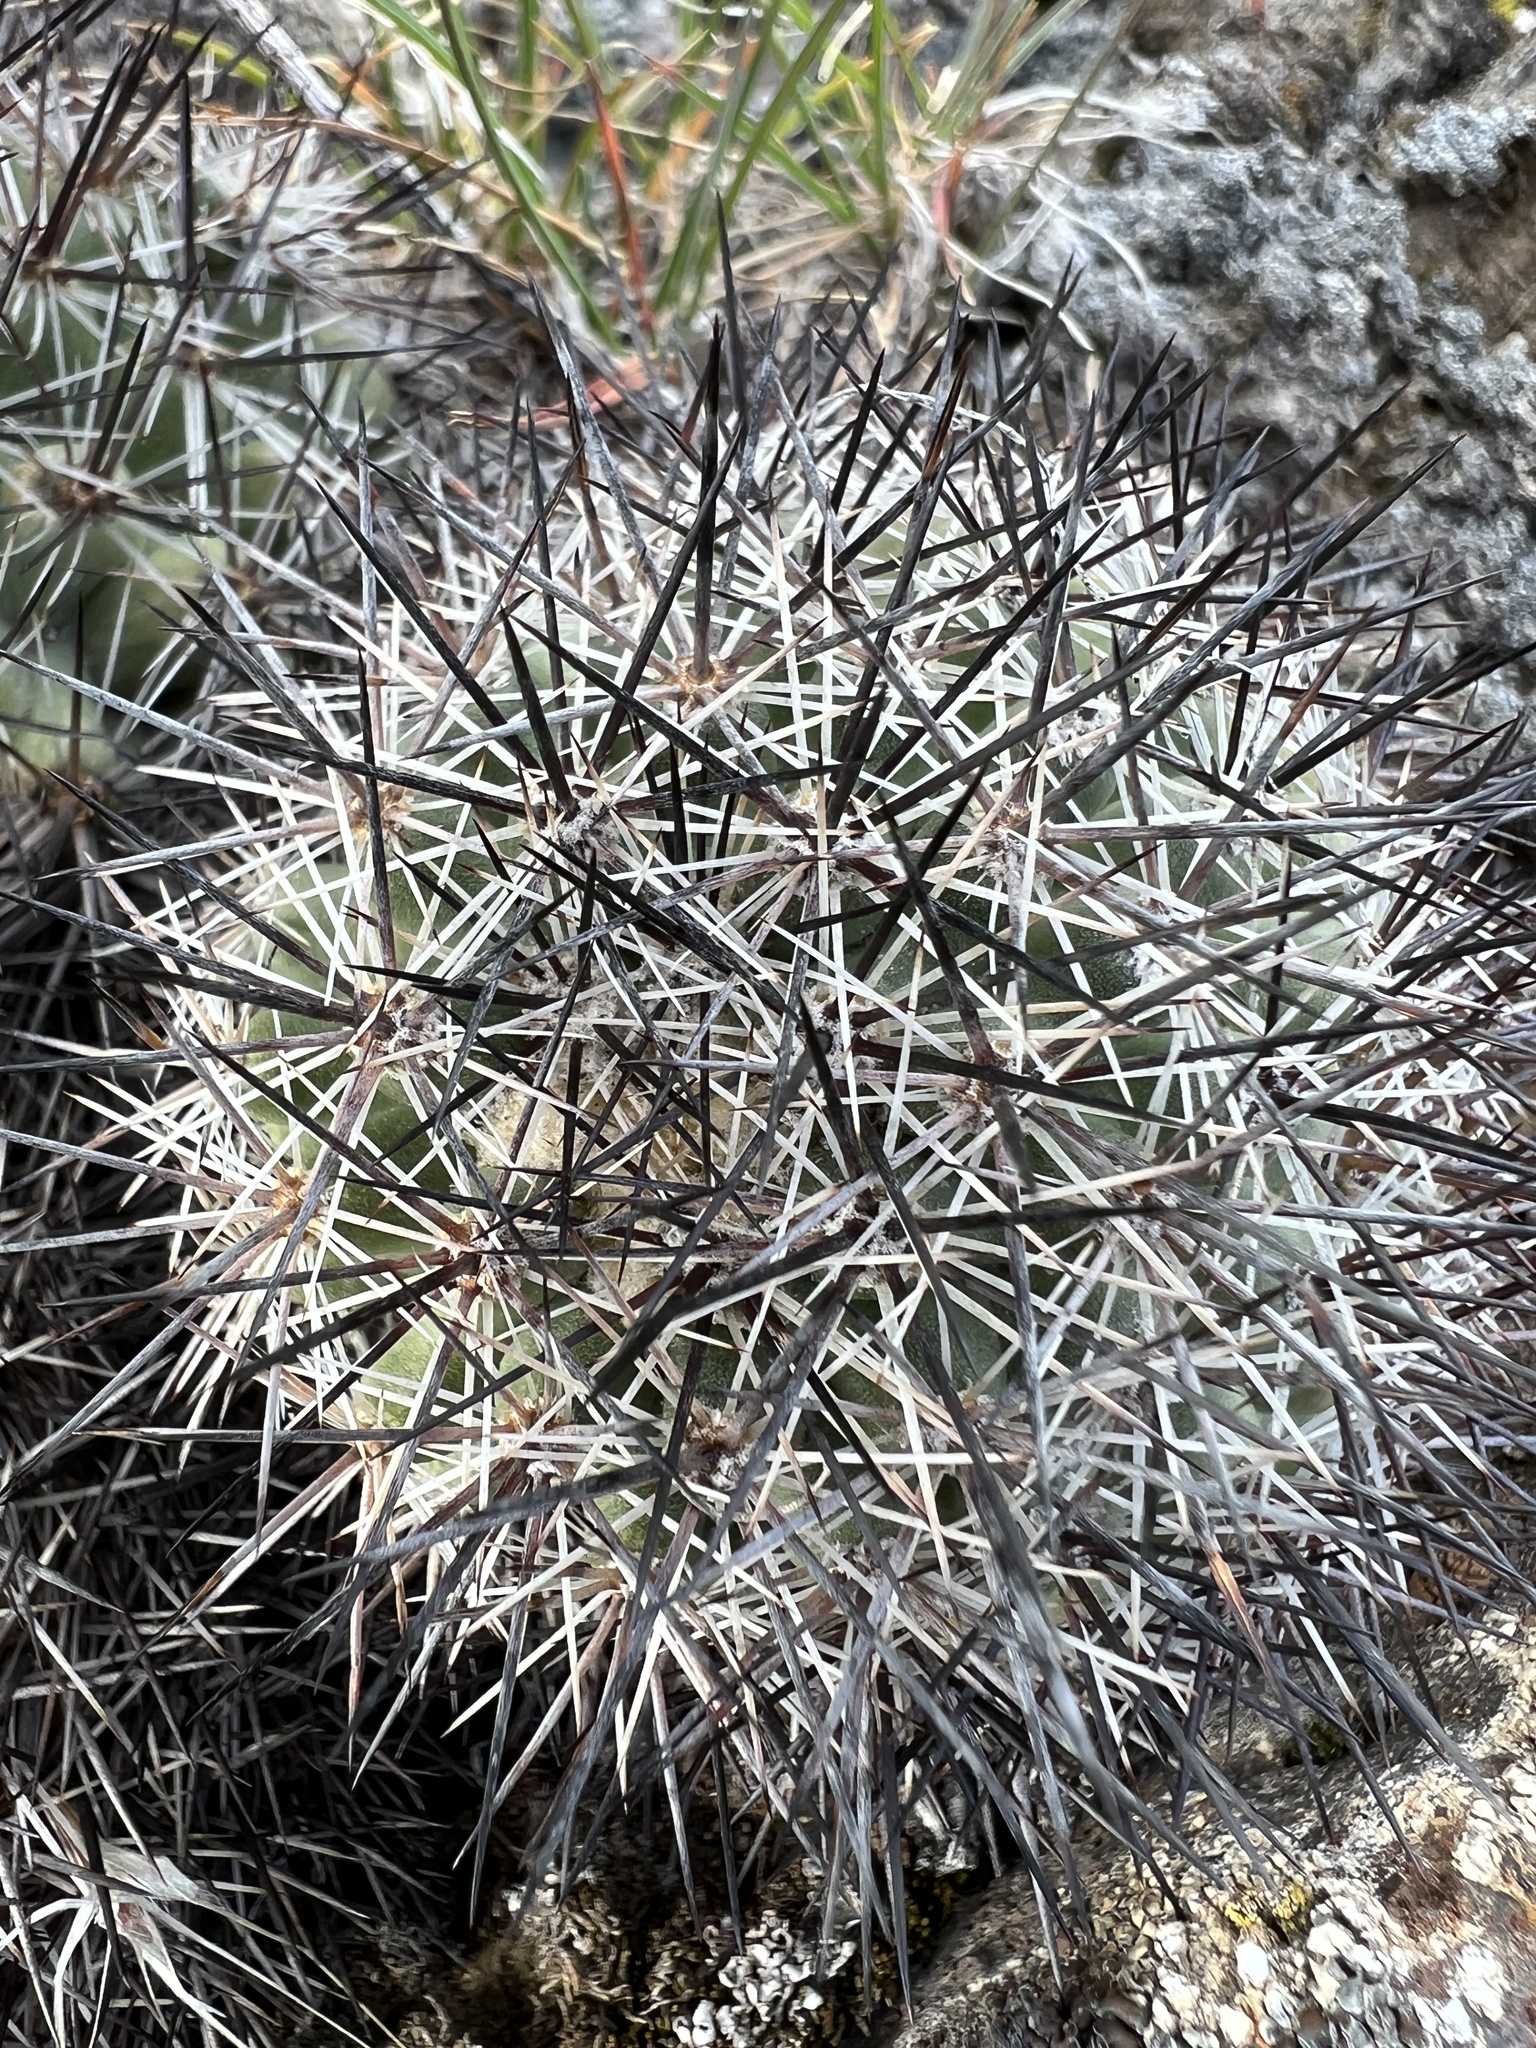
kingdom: Plantae
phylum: Tracheophyta
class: Magnoliopsida
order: Caryophyllales
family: Cactaceae
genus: Pediocactus
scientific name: Pediocactus nigrispinus
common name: Simpson's hedgehog cactus
